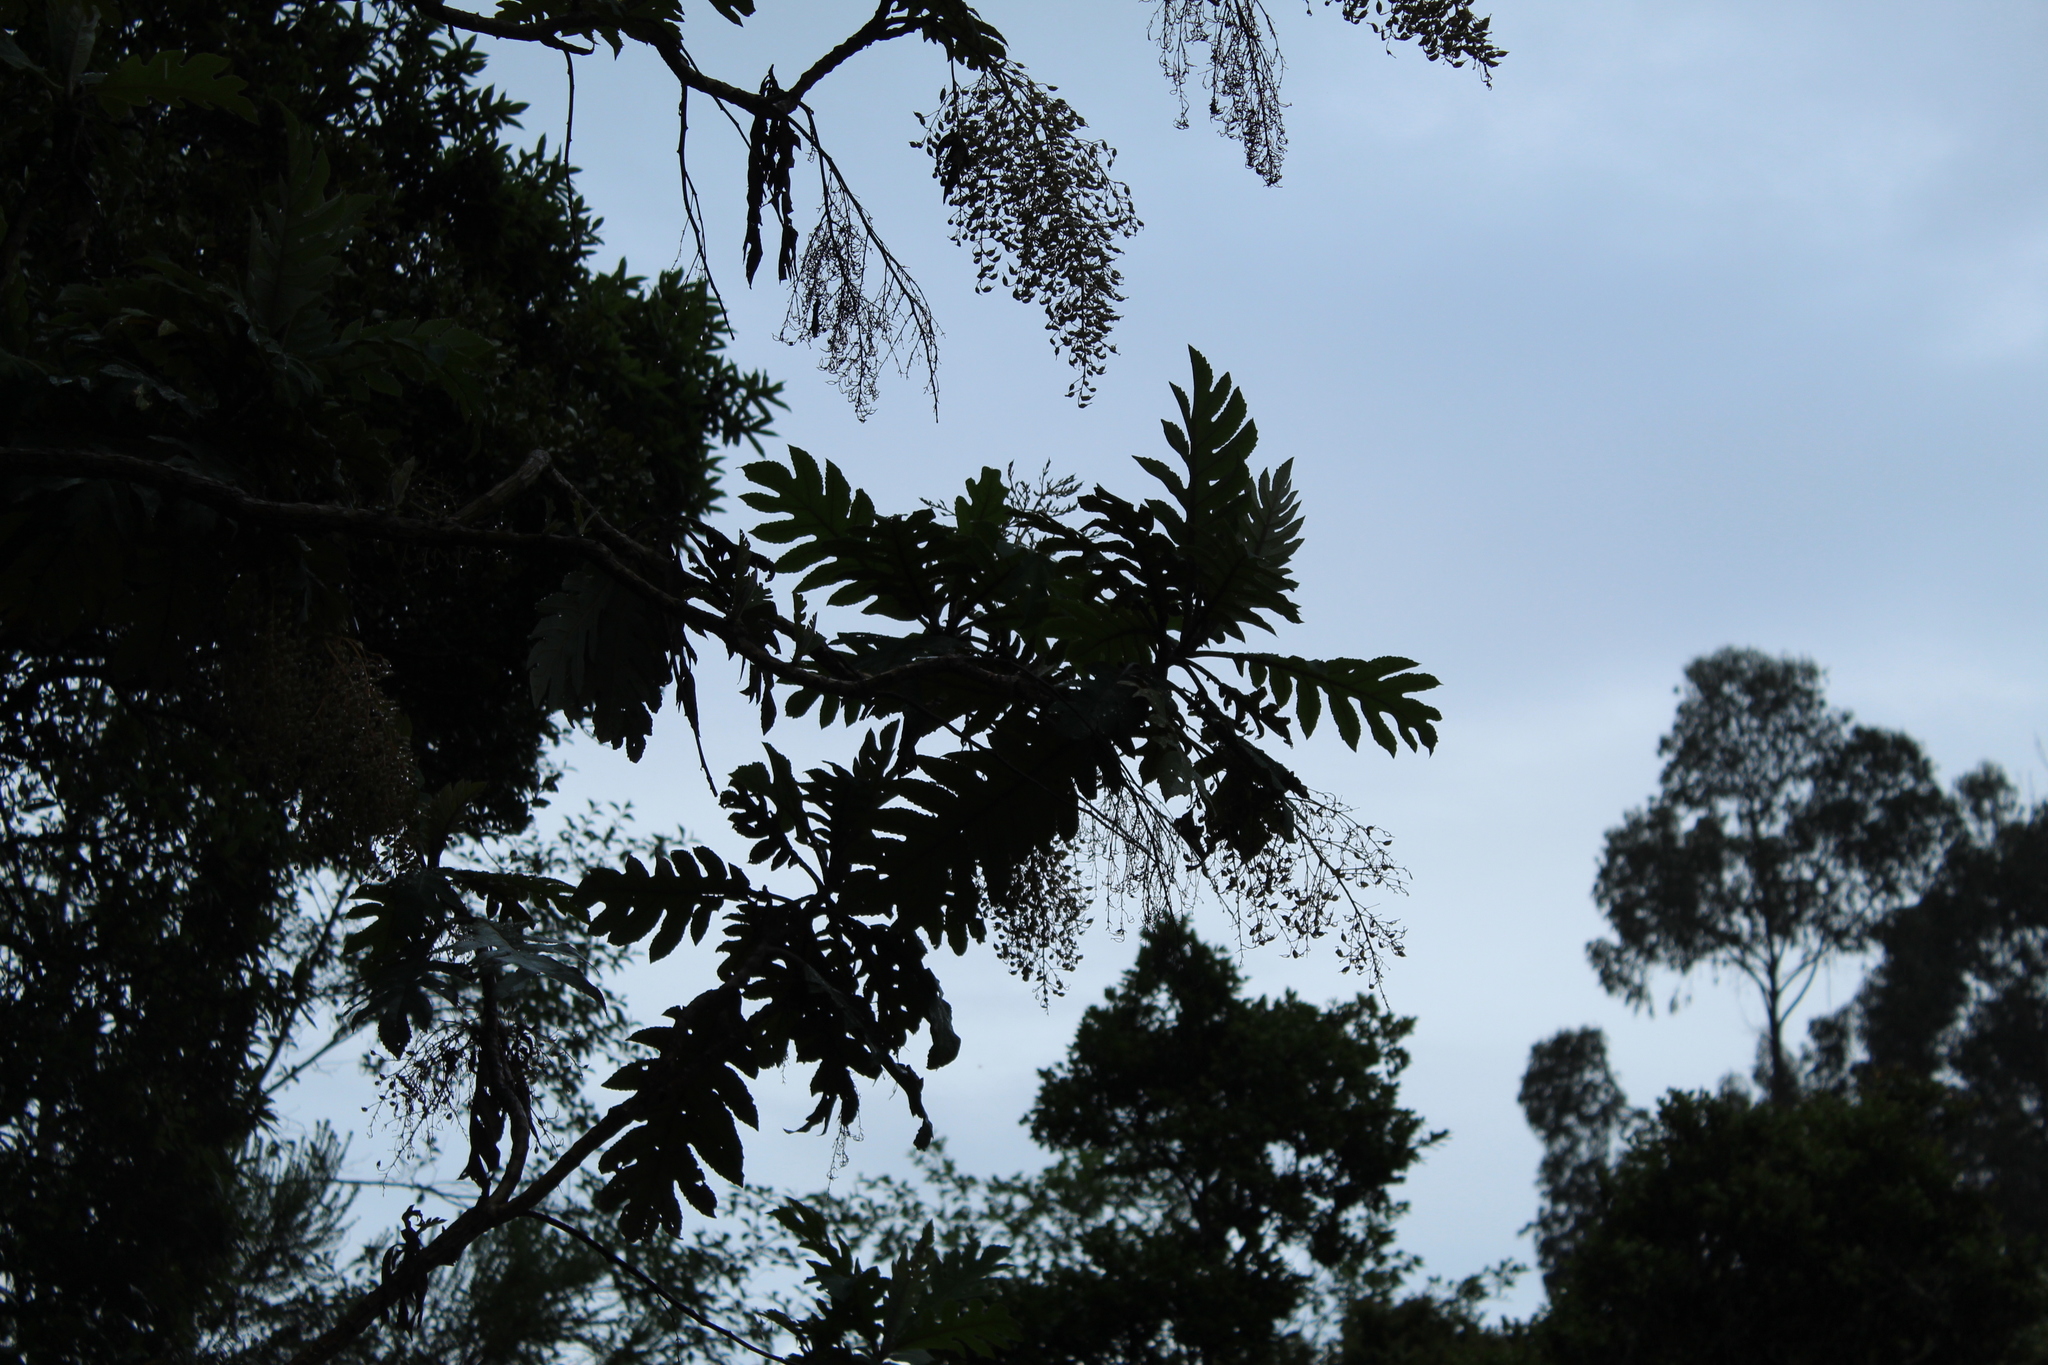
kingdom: Plantae
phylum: Tracheophyta
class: Magnoliopsida
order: Ranunculales
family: Papaveraceae
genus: Bocconia
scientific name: Bocconia frutescens
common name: Tree poppy
